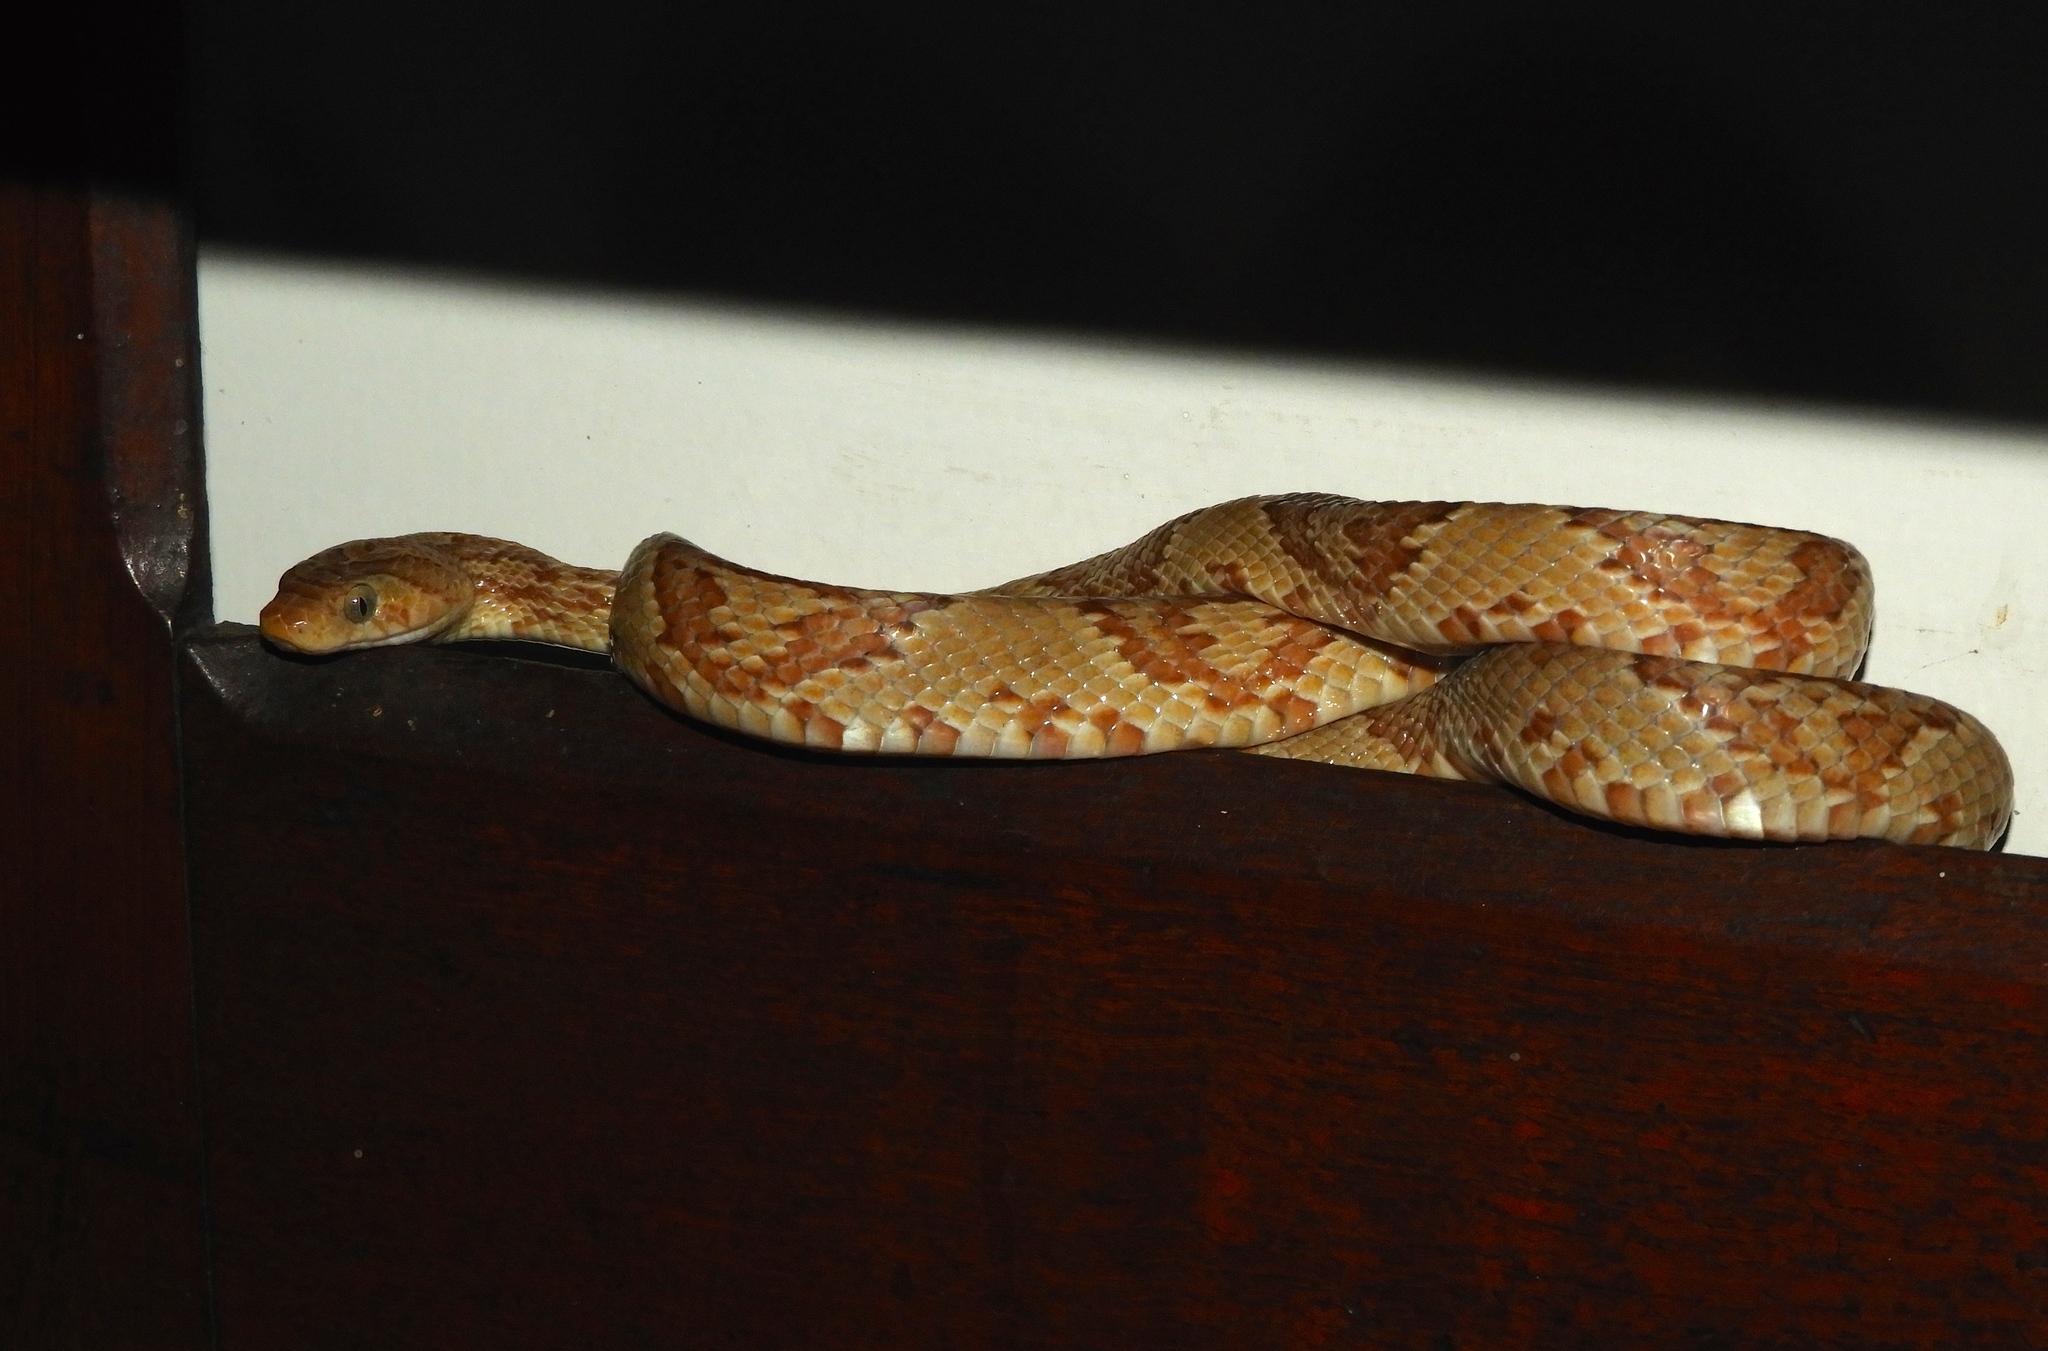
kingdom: Animalia
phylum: Chordata
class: Squamata
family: Colubridae
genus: Trimorphodon
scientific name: Trimorphodon paucimaculatus
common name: Sinaloan lyresnake
